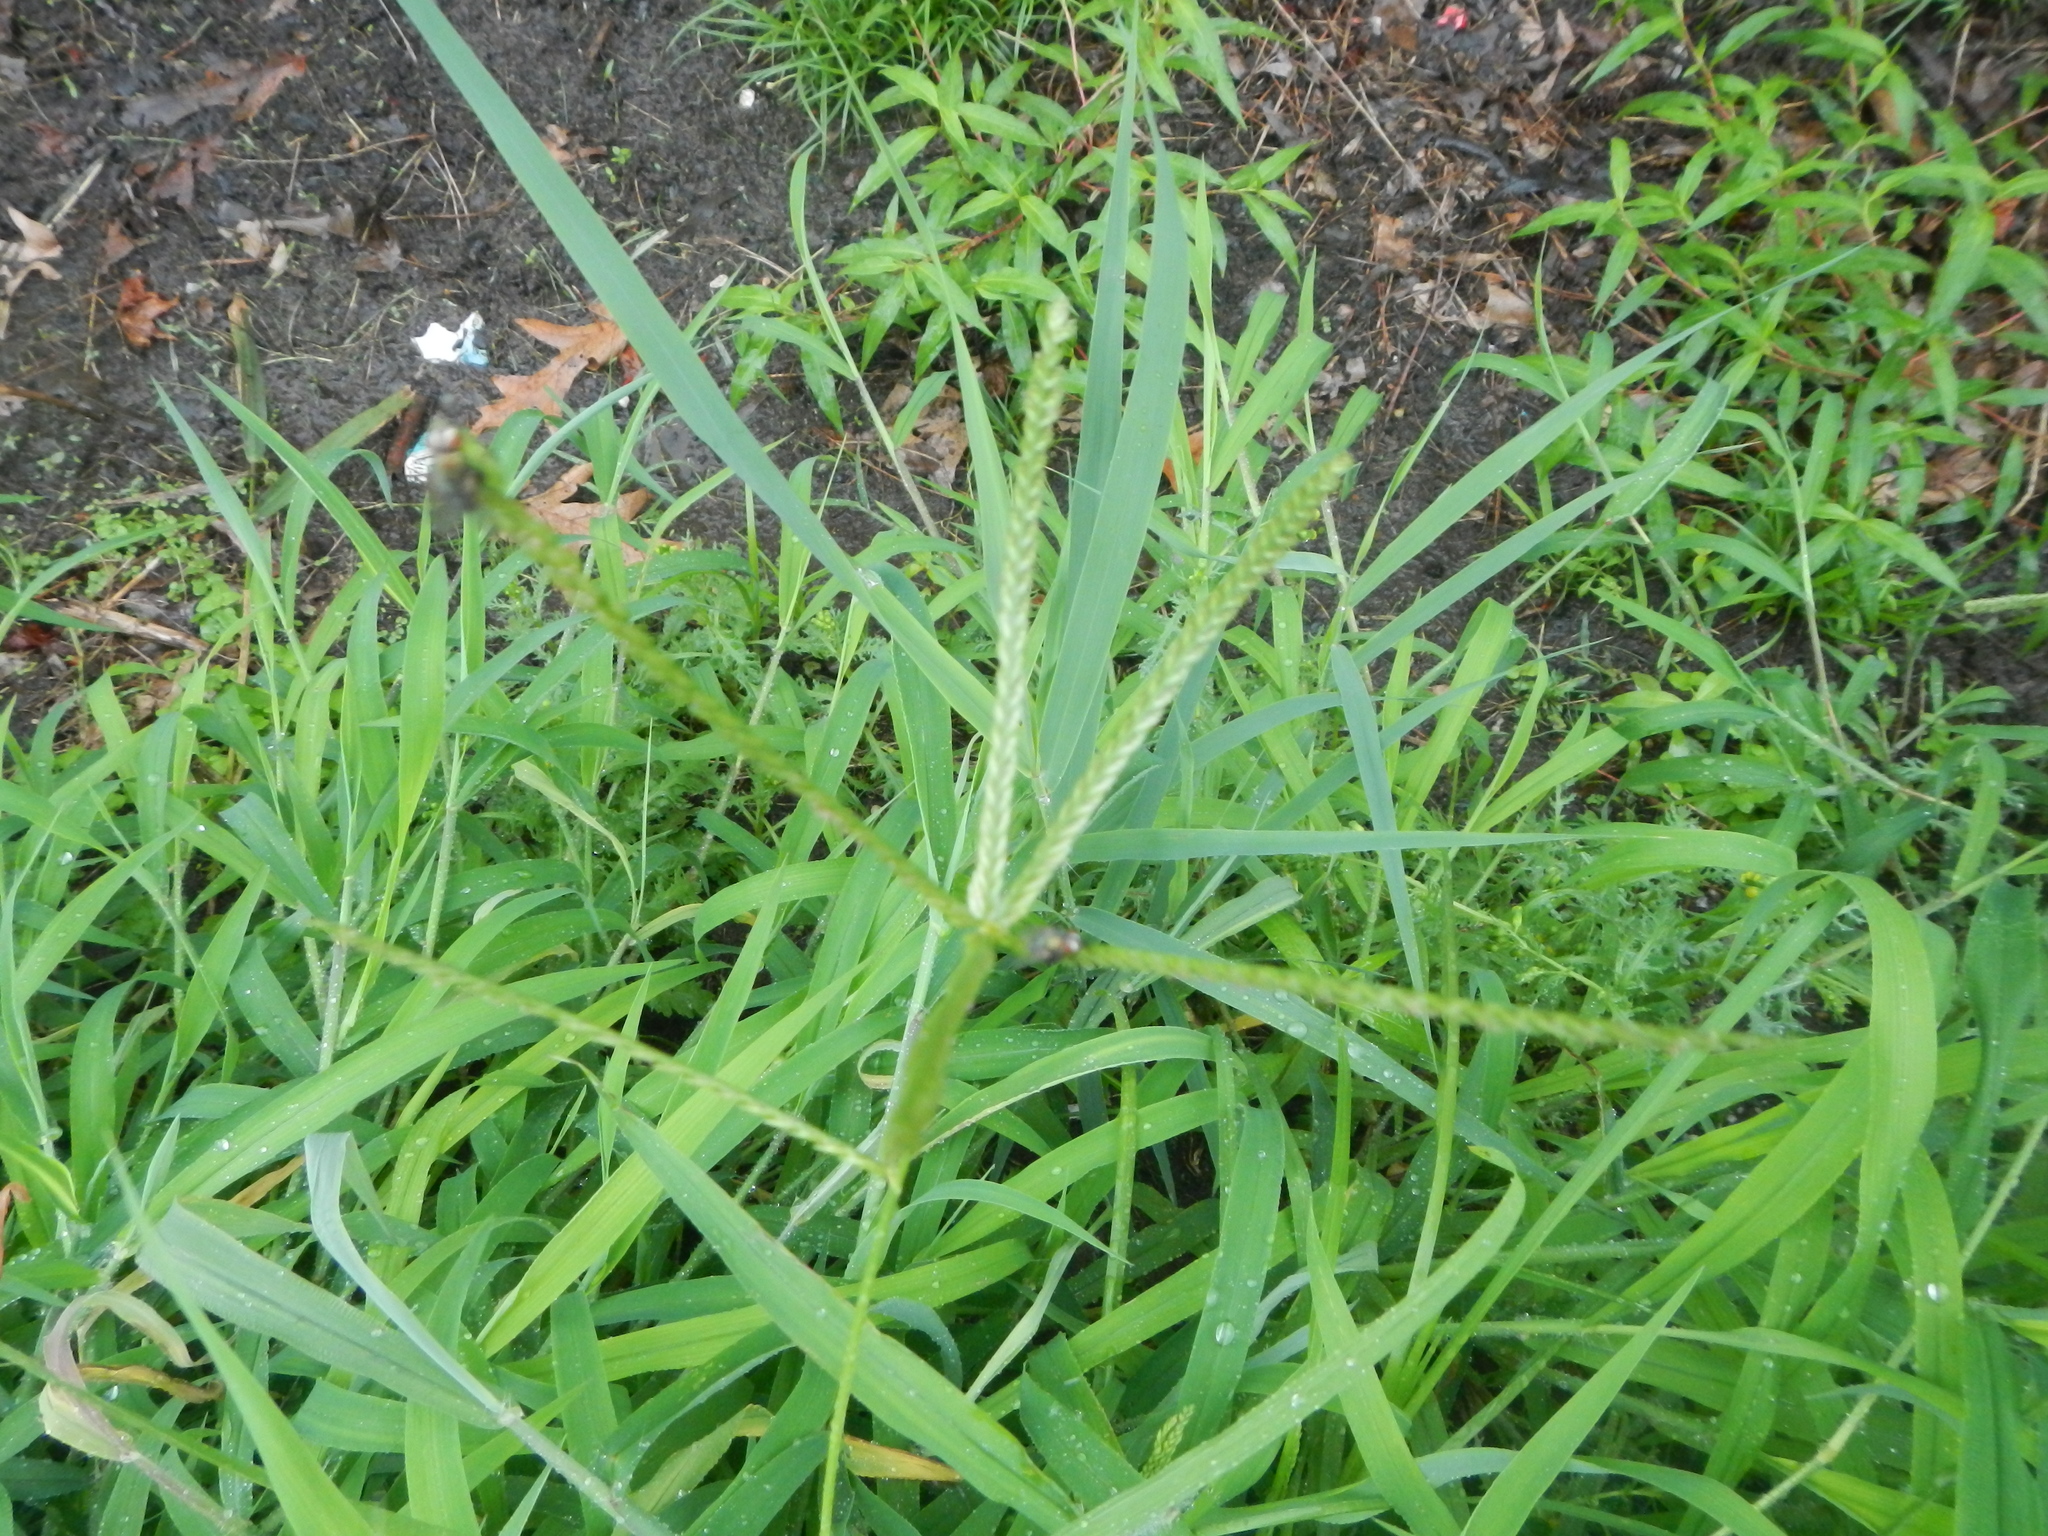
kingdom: Plantae
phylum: Tracheophyta
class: Liliopsida
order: Poales
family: Poaceae
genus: Eleusine
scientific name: Eleusine indica
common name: Yard-grass
